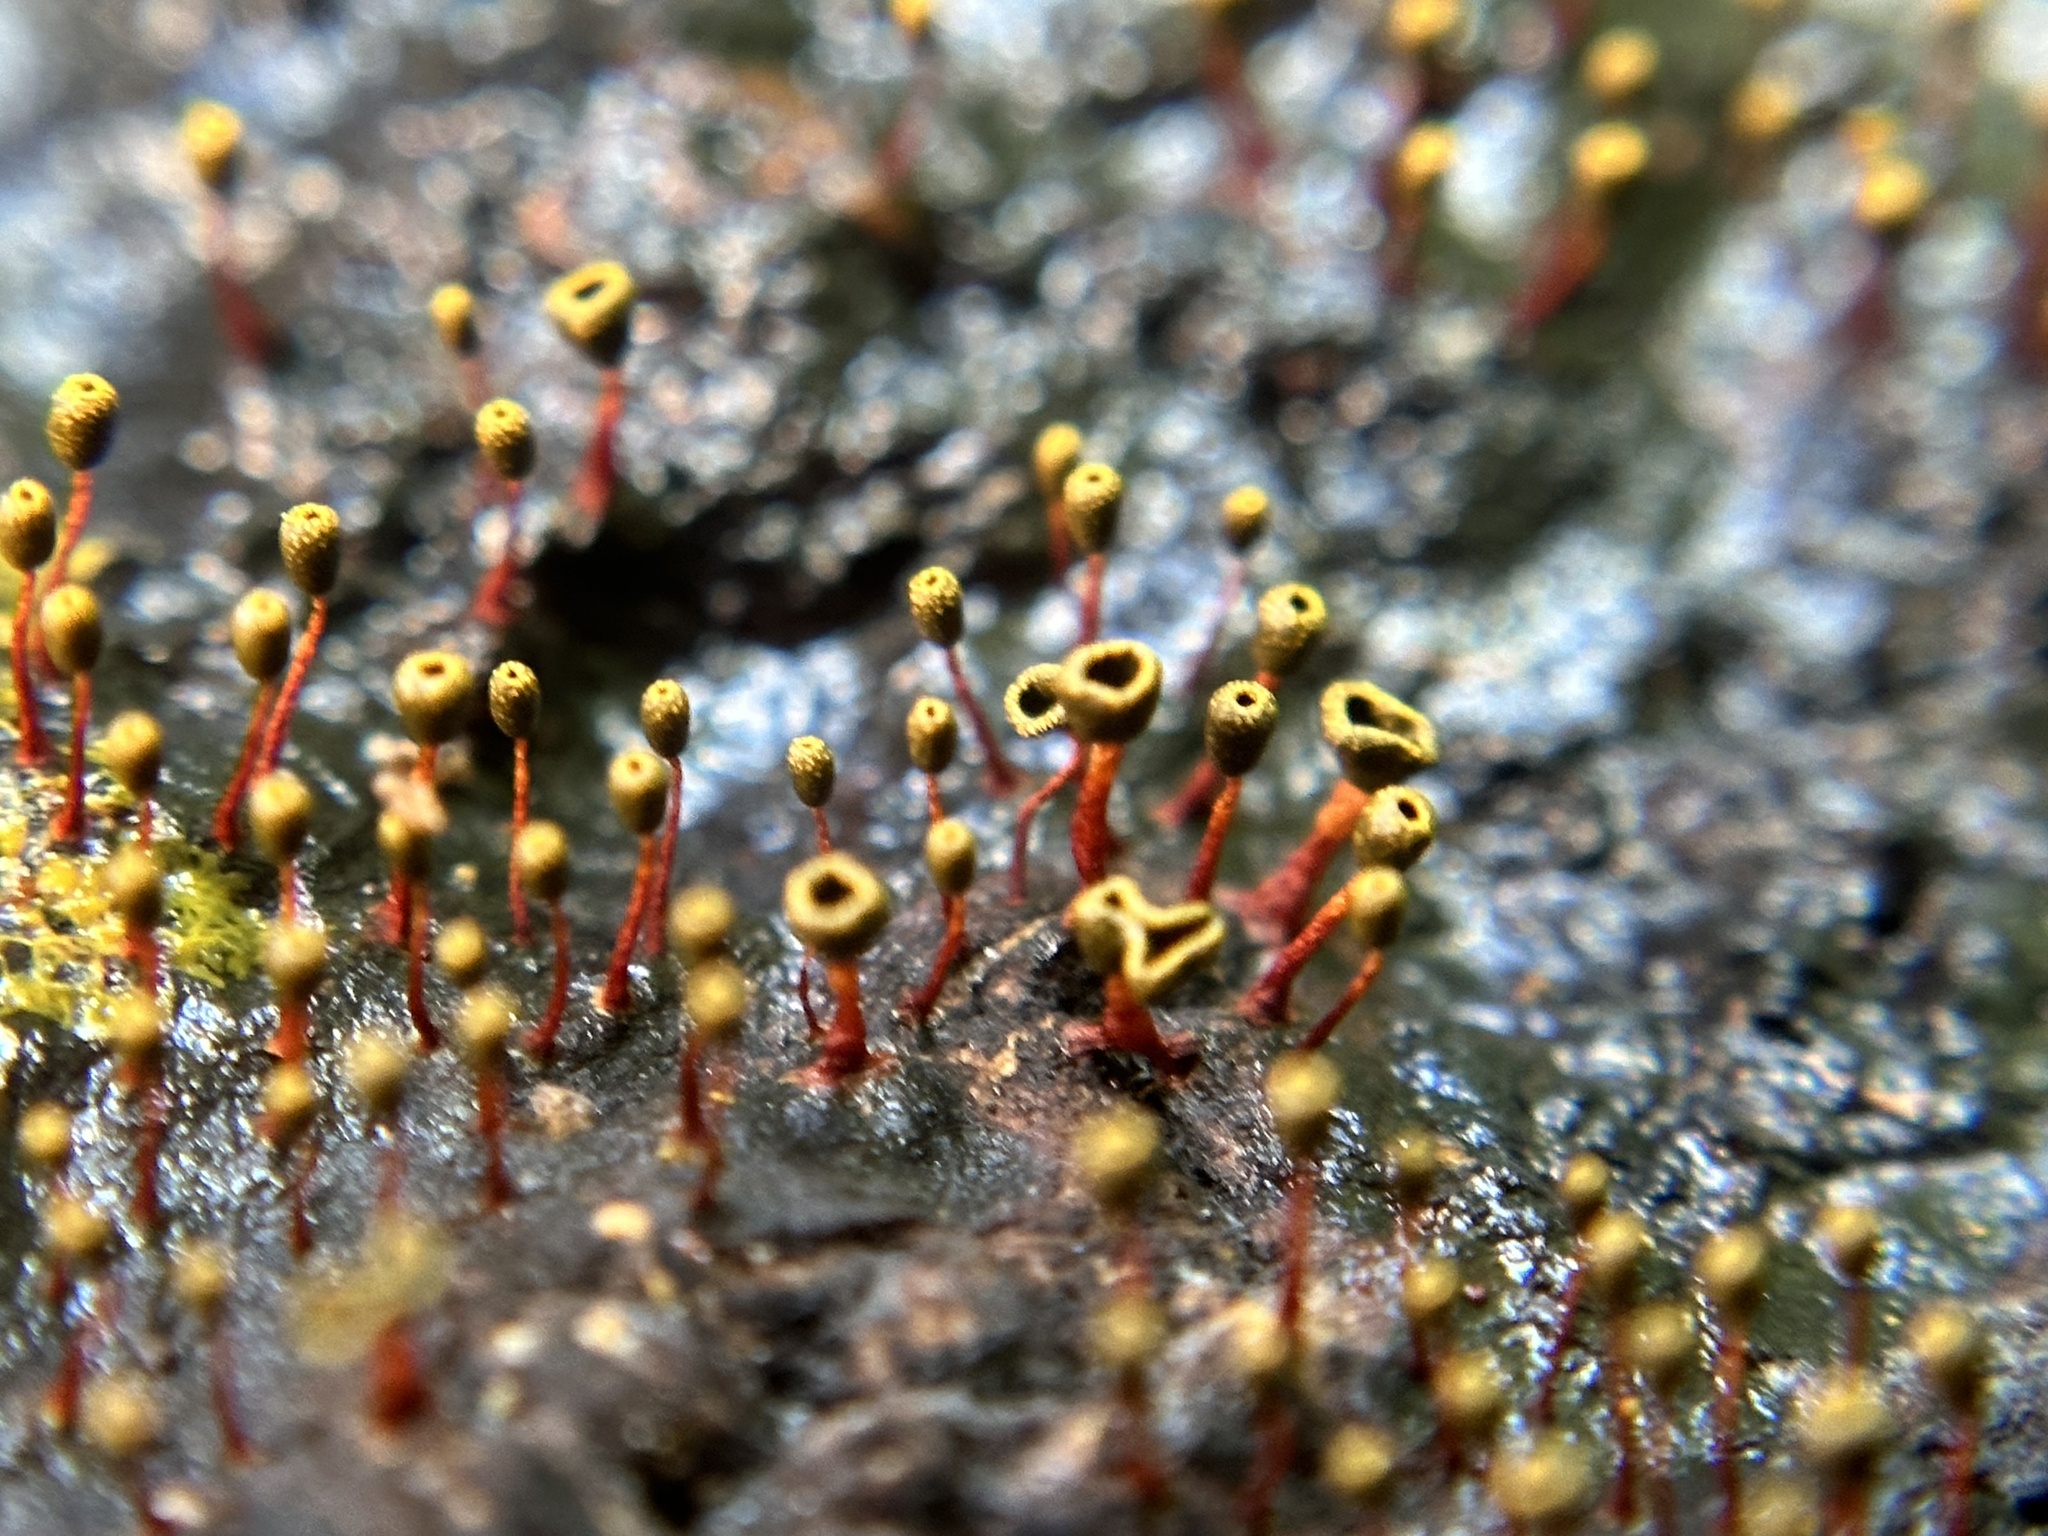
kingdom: Protozoa
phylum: Mycetozoa
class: Myxomycetes
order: Physarales
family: Physaraceae
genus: Physarella
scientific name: Physarella oblonga
